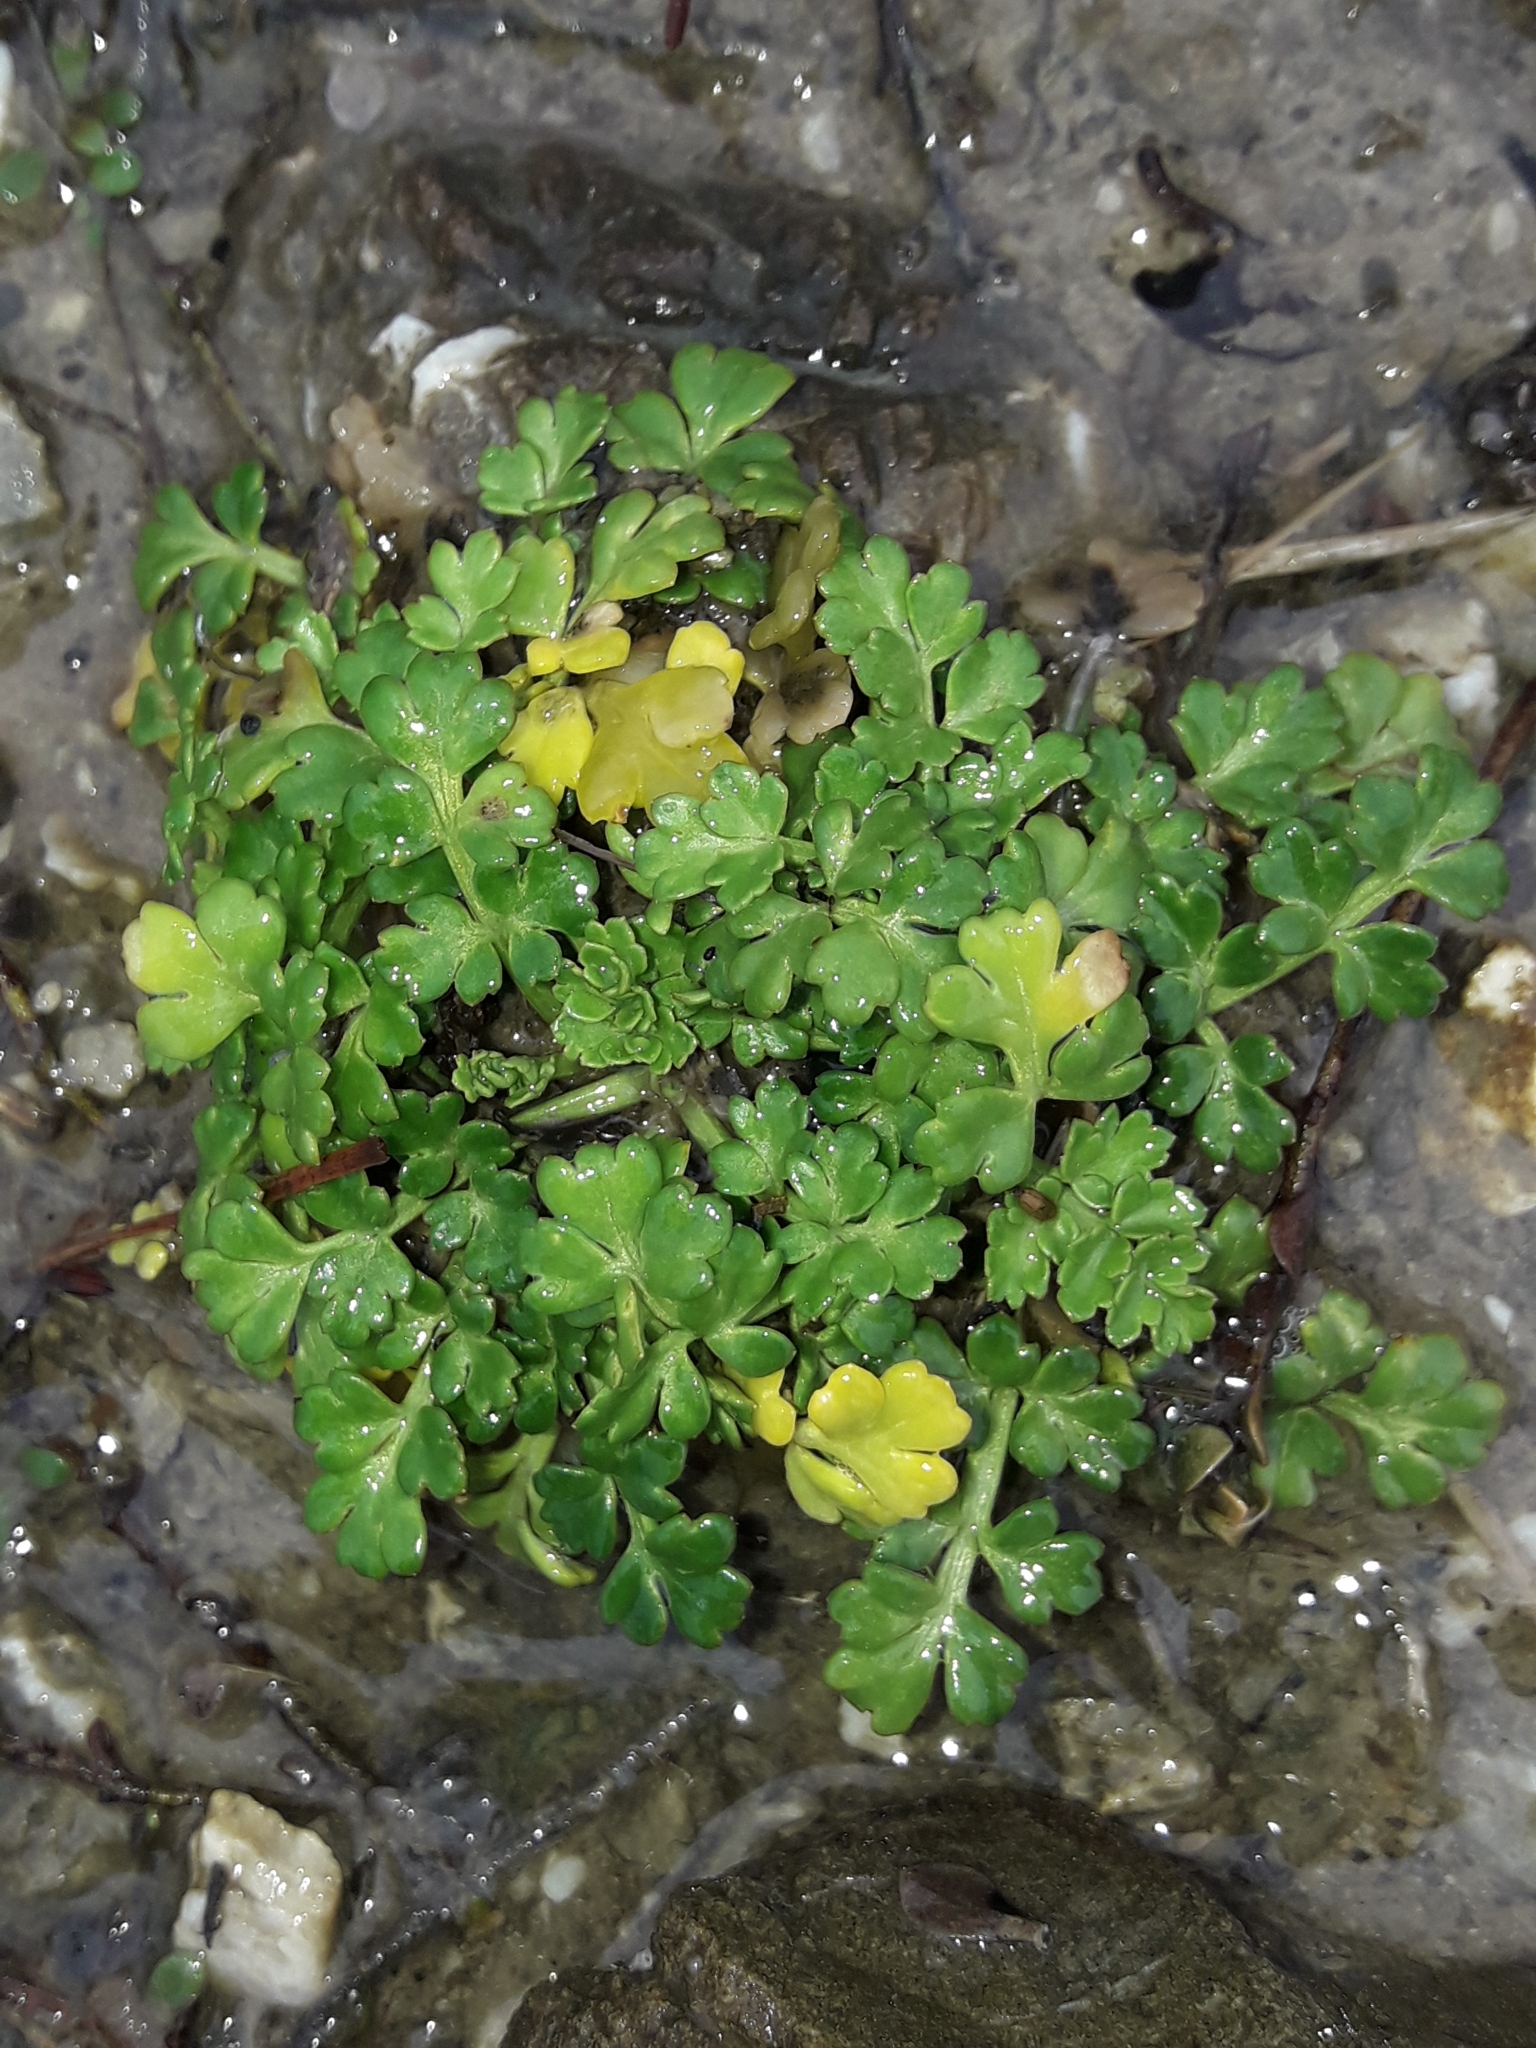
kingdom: Plantae
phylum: Tracheophyta
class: Magnoliopsida
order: Apiales
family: Apiaceae
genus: Apium
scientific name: Apium prostratum
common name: Prostrate marshwort
